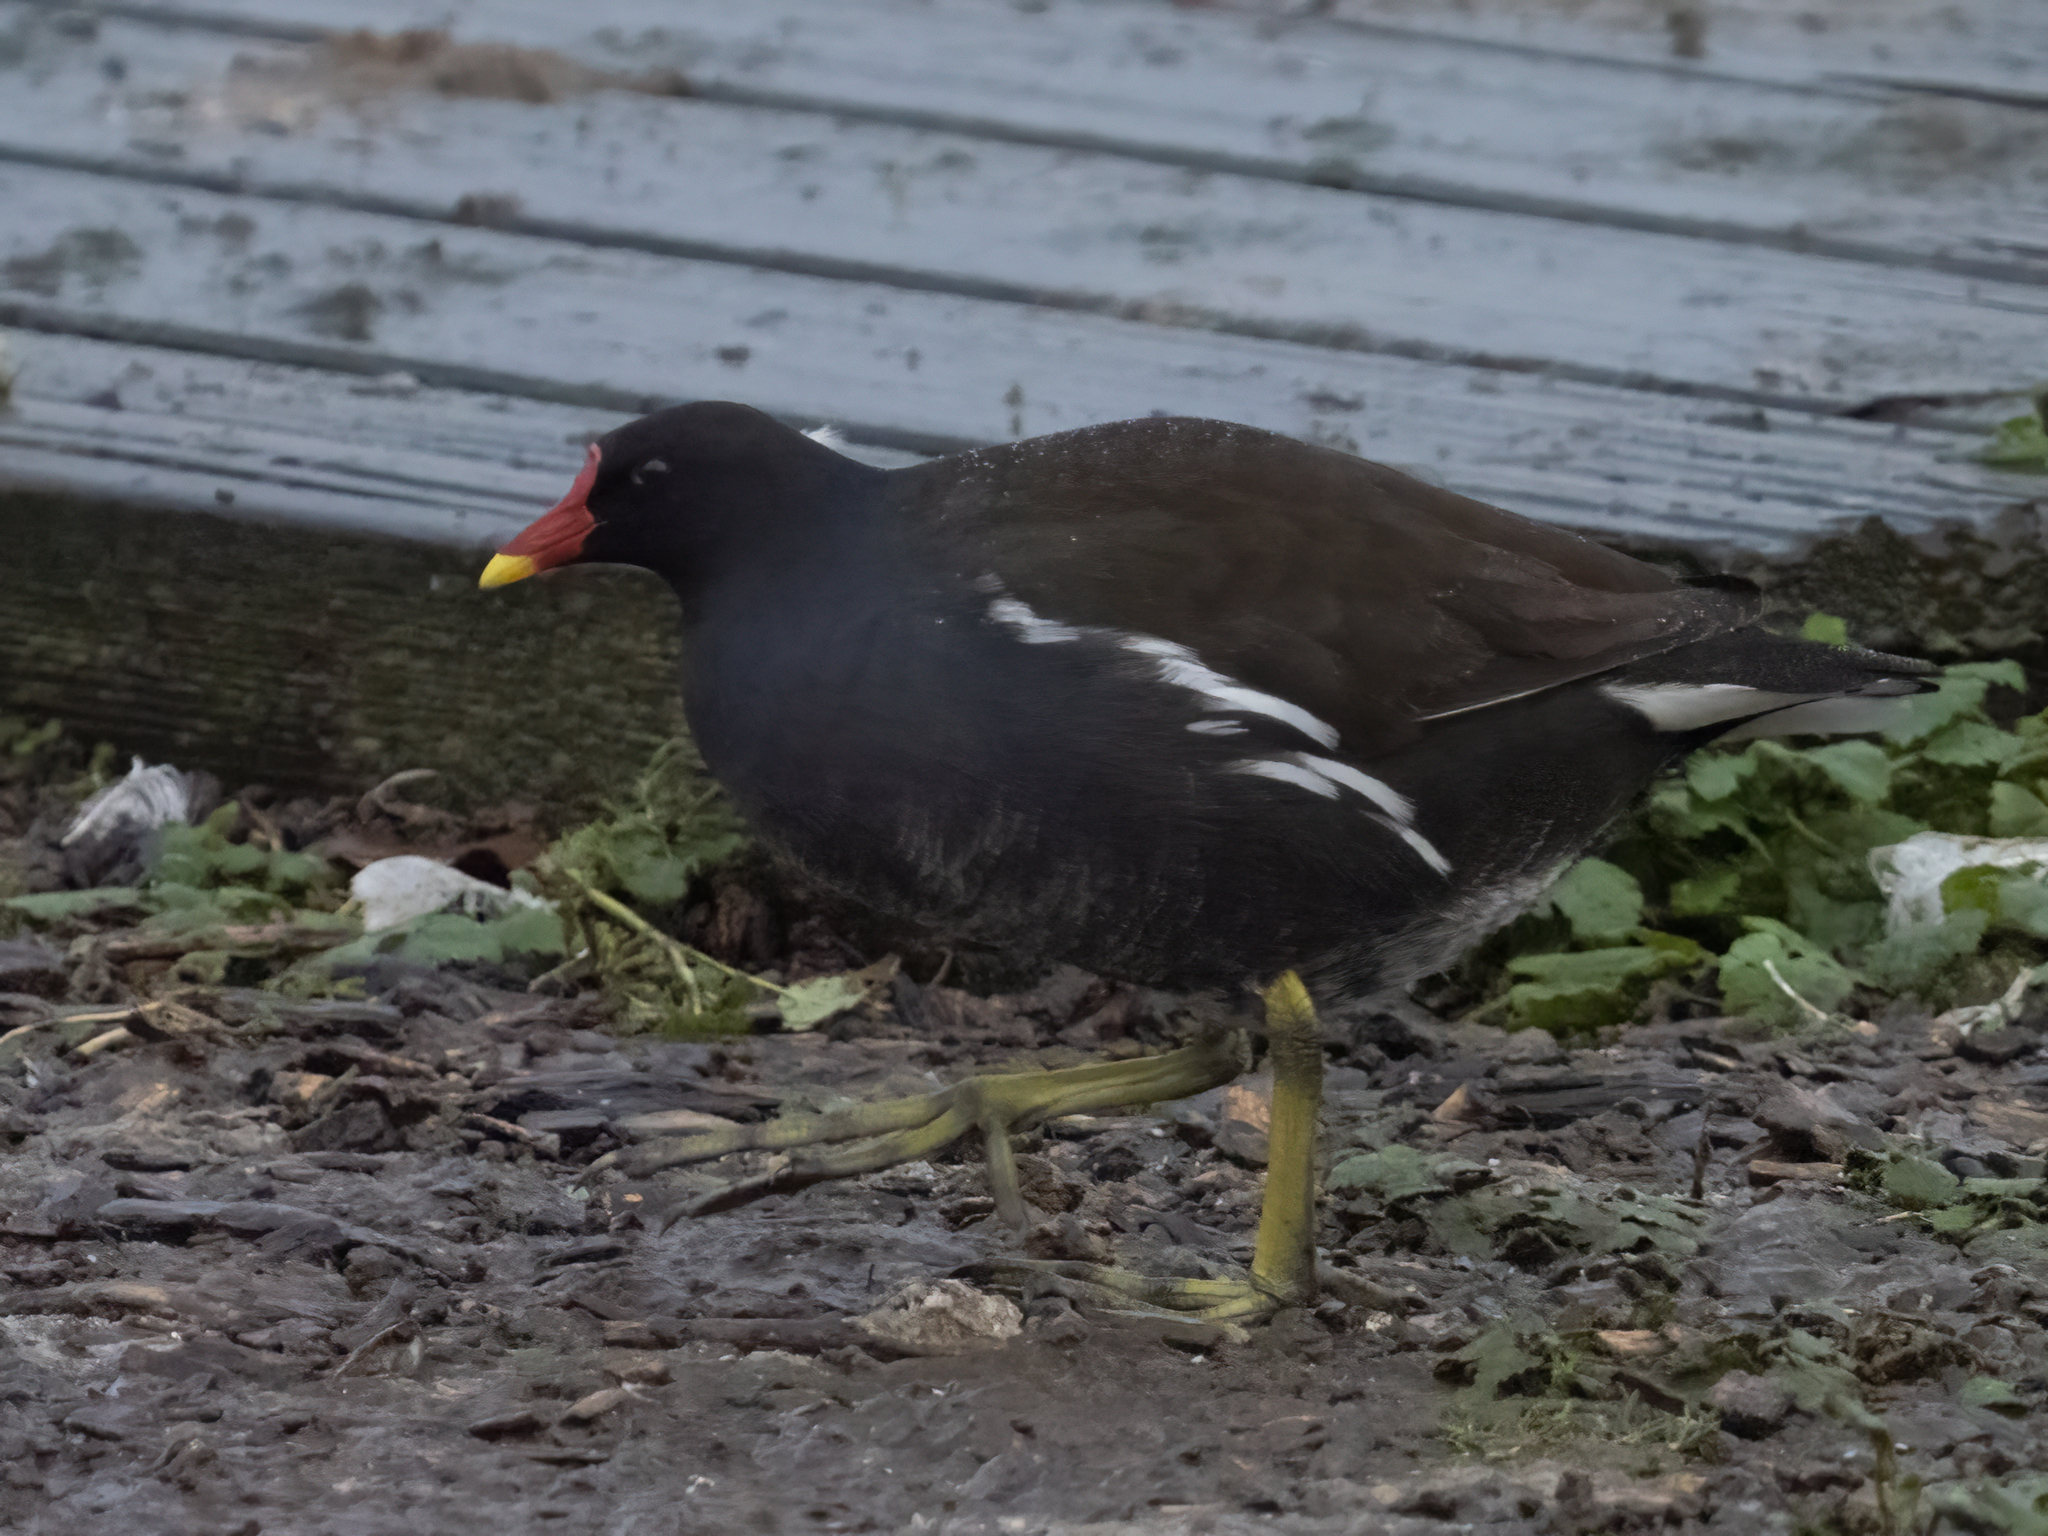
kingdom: Animalia
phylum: Chordata
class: Aves
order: Gruiformes
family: Rallidae
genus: Gallinula
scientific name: Gallinula chloropus
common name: Common moorhen
